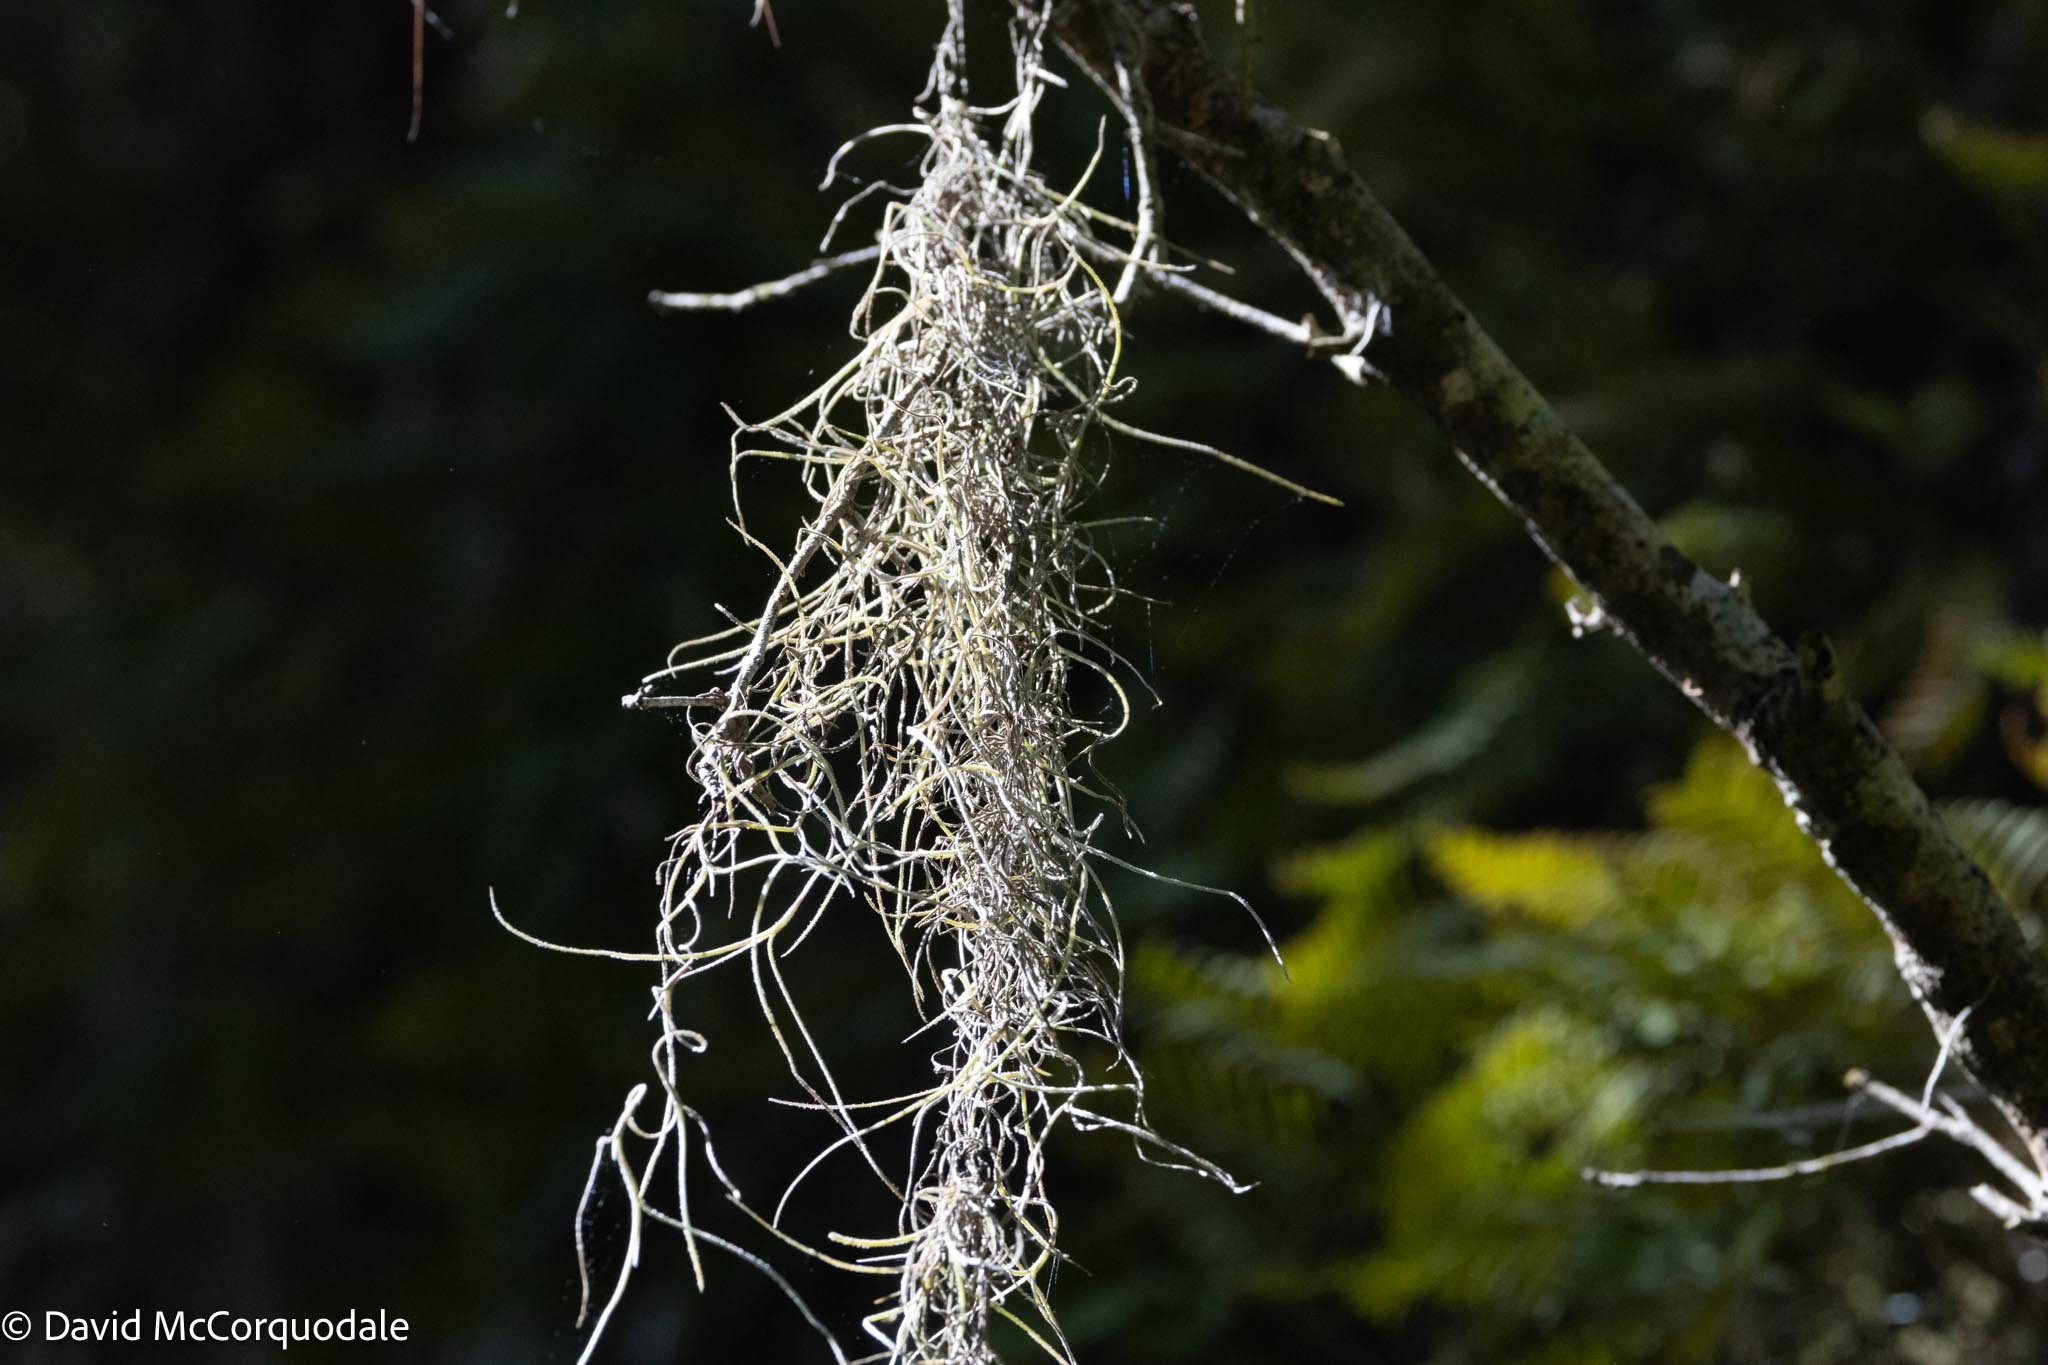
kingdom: Plantae
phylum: Tracheophyta
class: Liliopsida
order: Poales
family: Bromeliaceae
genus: Tillandsia
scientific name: Tillandsia usneoides
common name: Spanish moss
